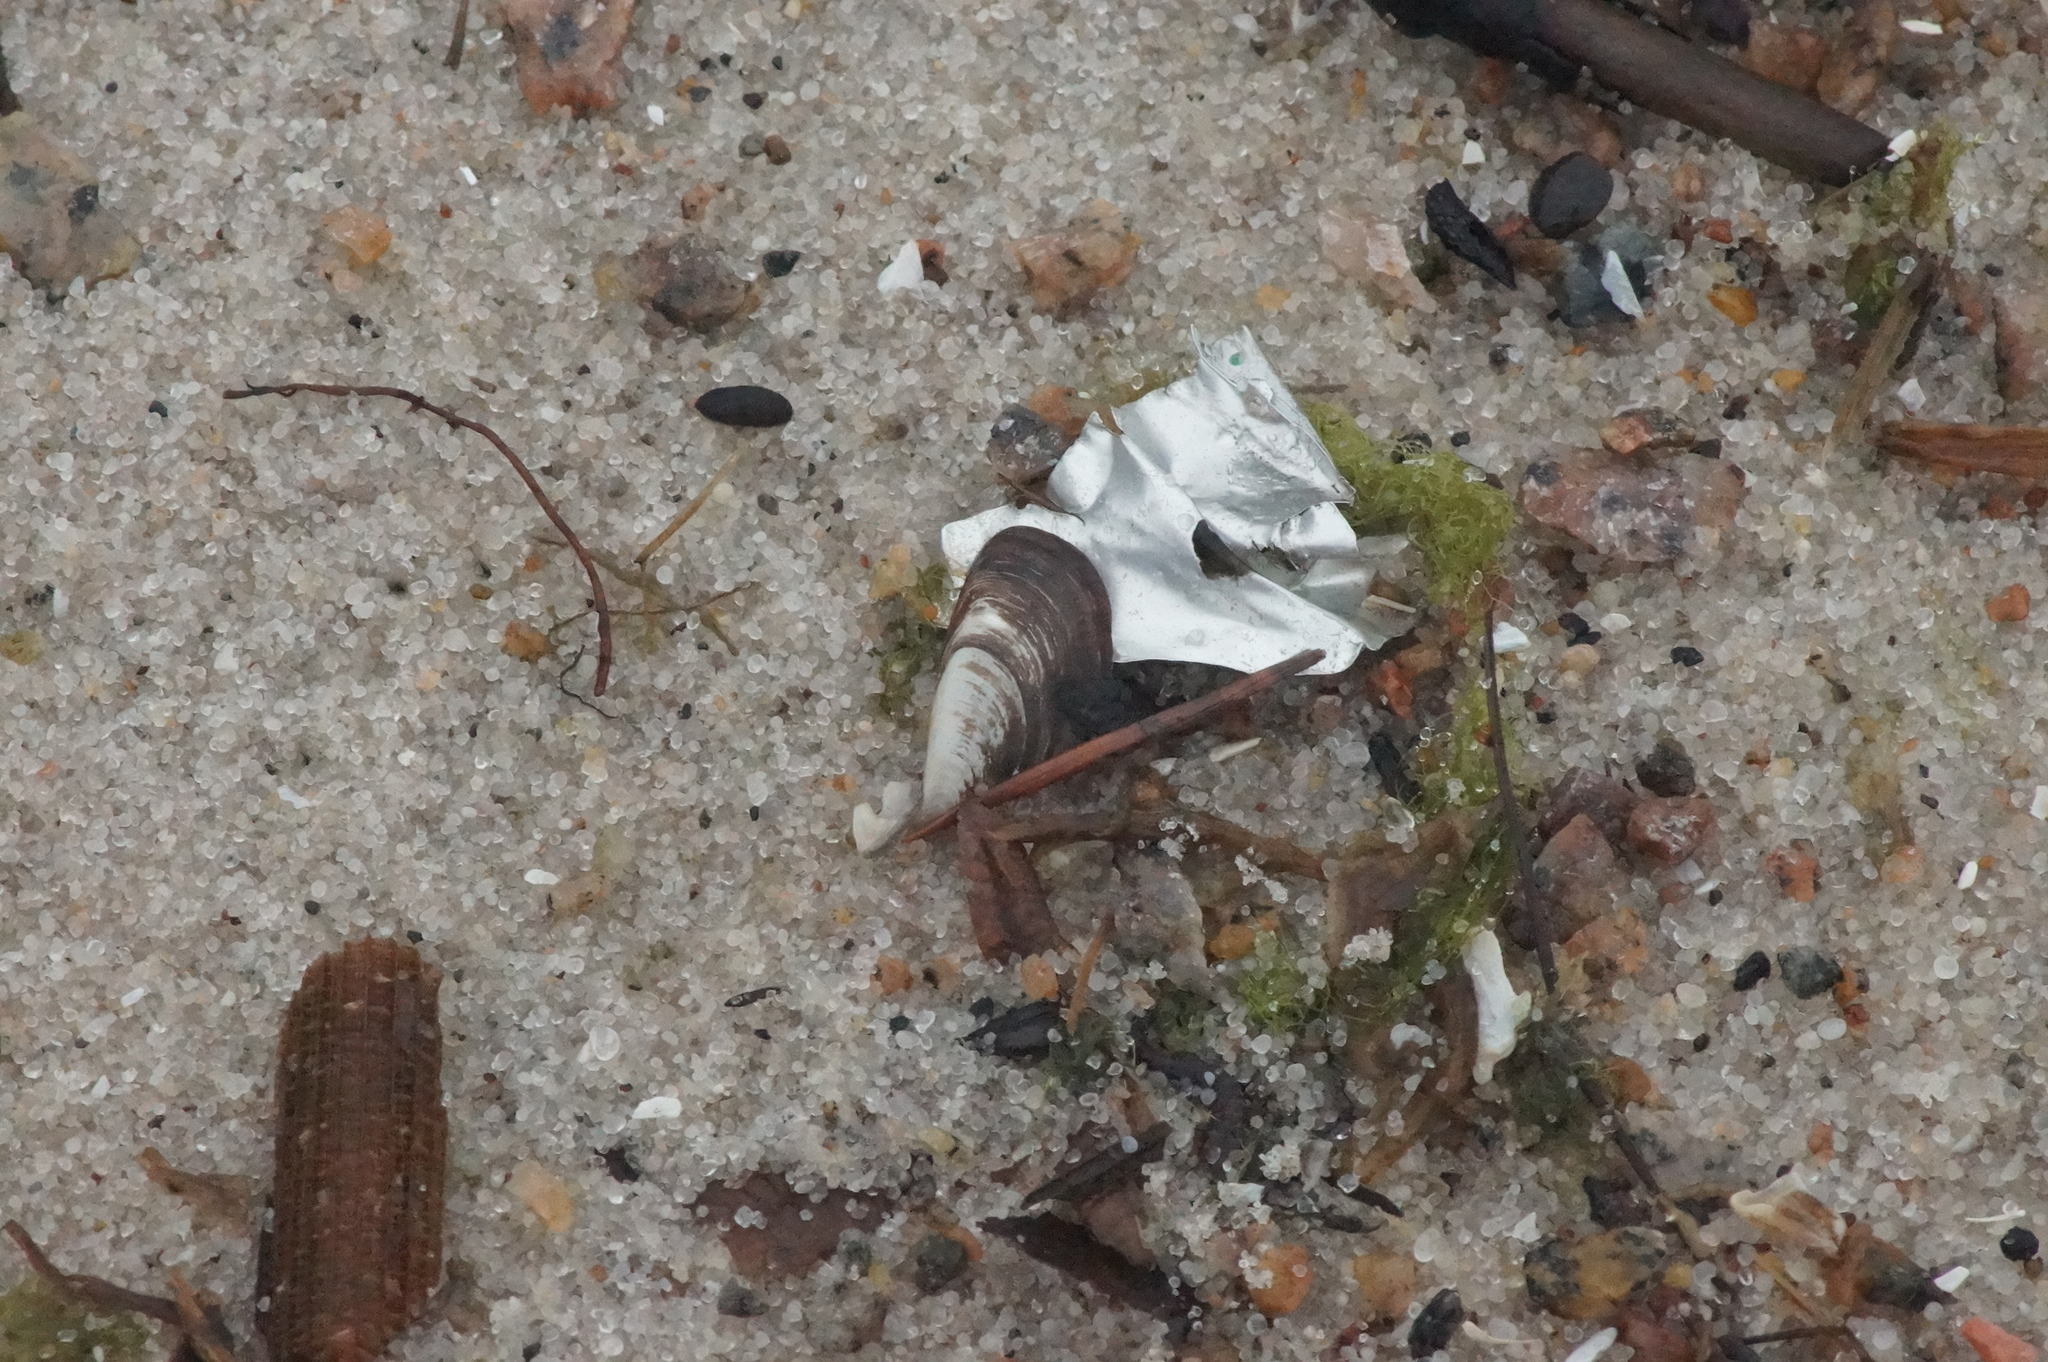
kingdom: Animalia
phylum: Mollusca
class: Bivalvia
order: Myida
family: Dreissenidae
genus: Dreissena
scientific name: Dreissena polymorpha
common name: Zebra mussel
